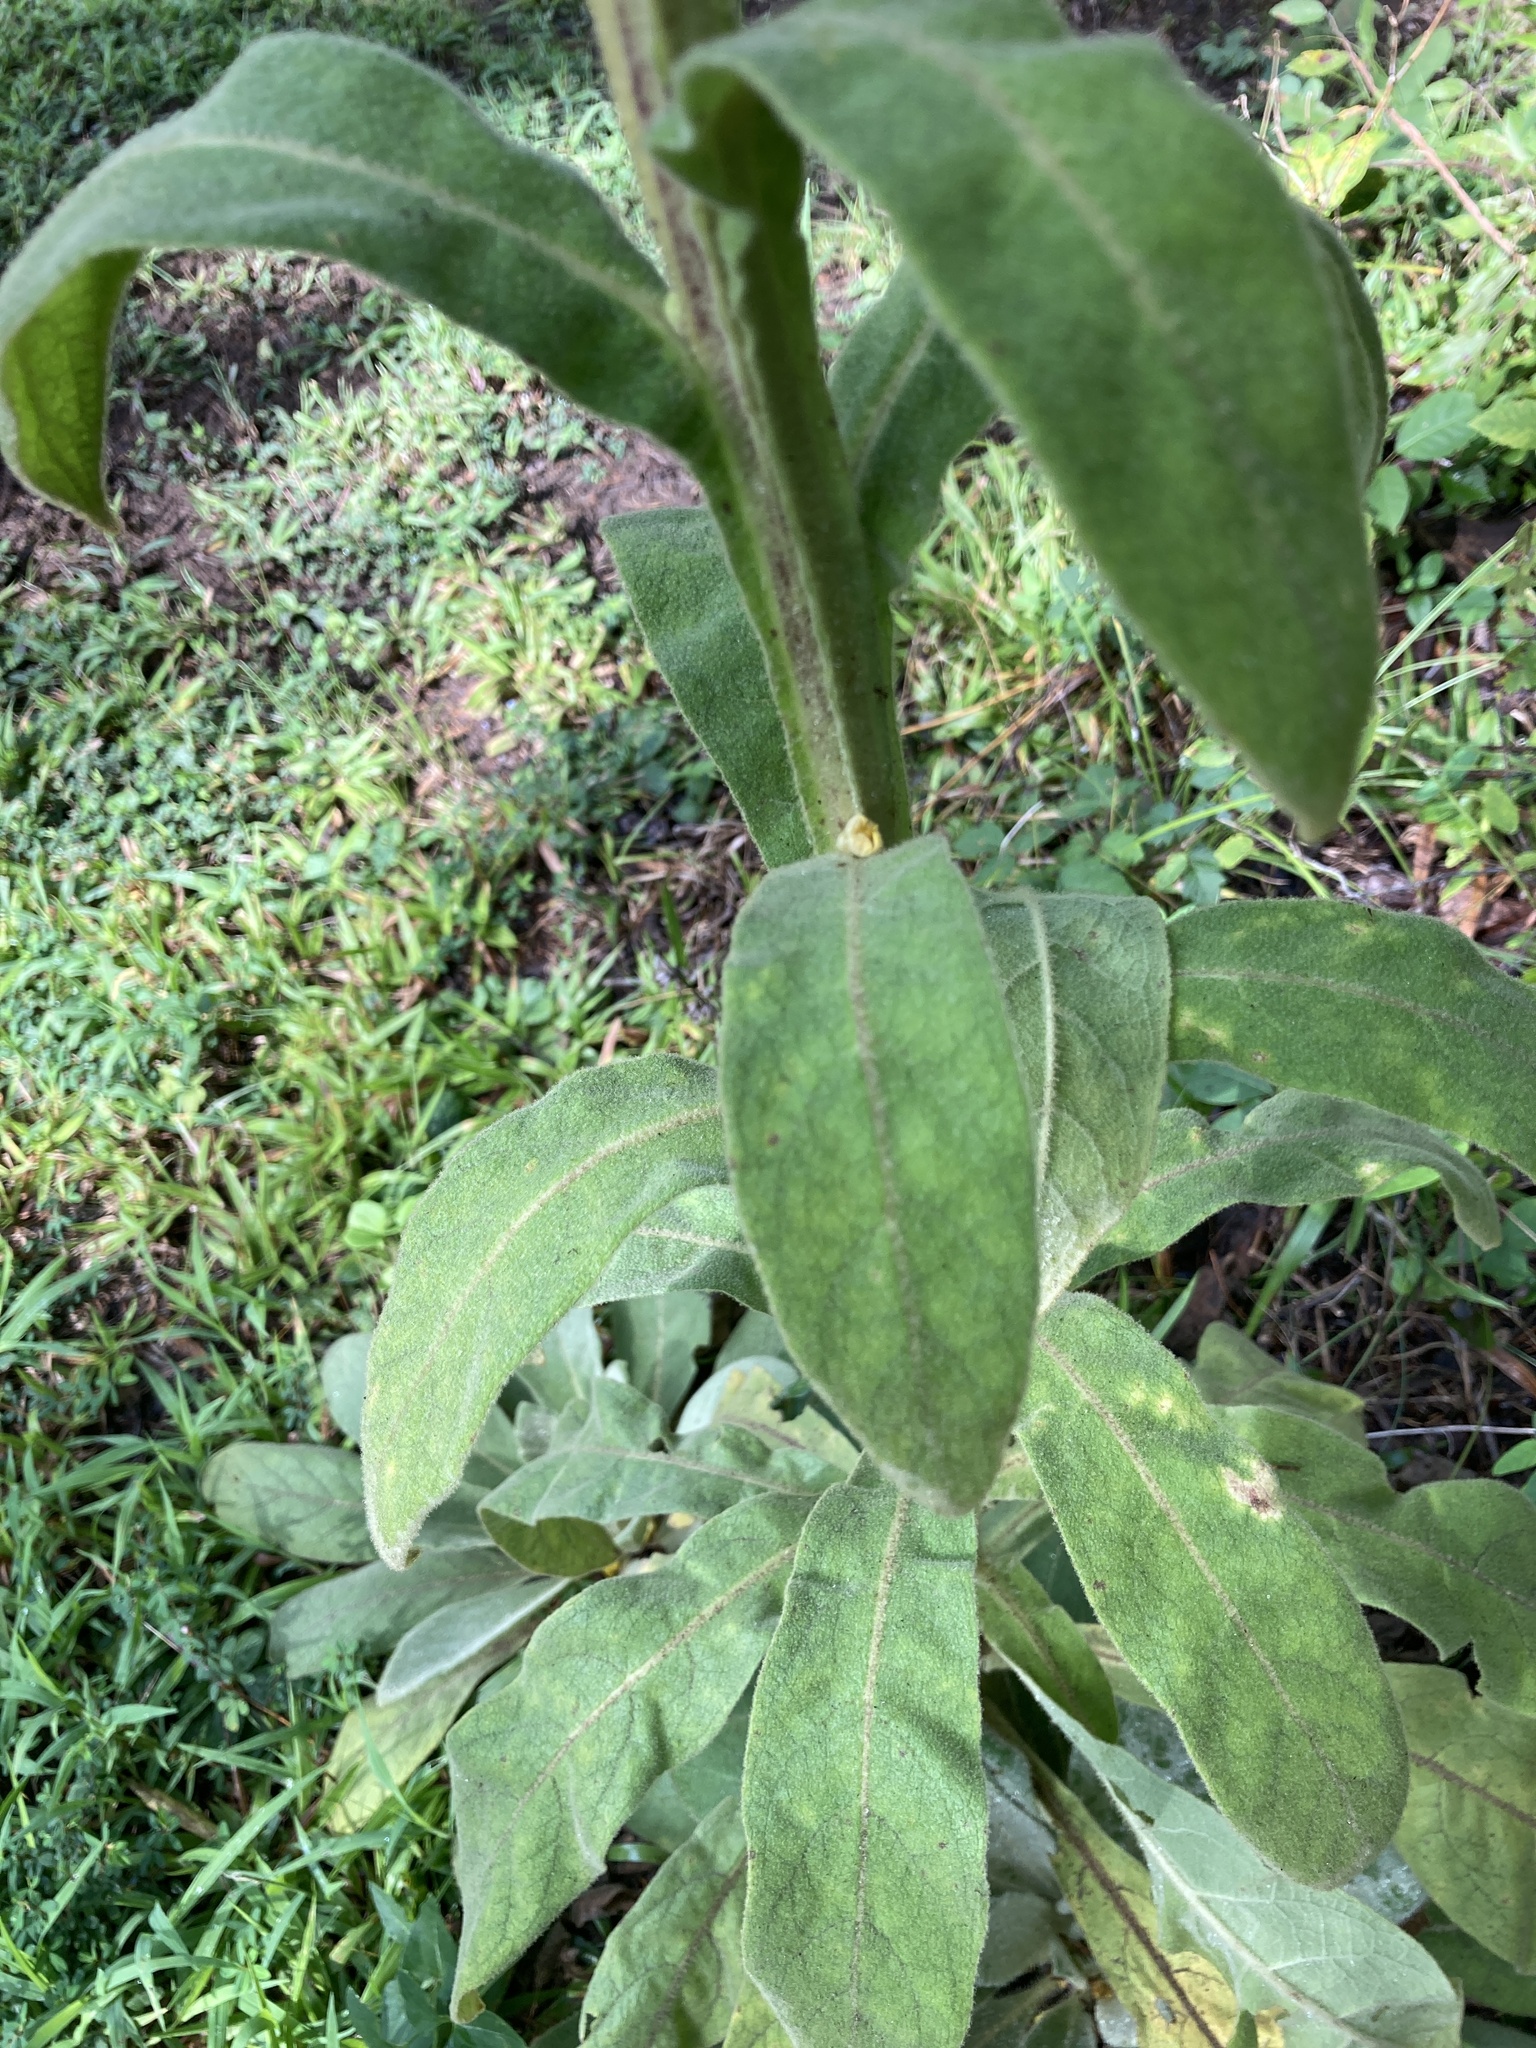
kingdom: Plantae
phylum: Tracheophyta
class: Magnoliopsida
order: Lamiales
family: Scrophulariaceae
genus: Verbascum
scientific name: Verbascum thapsus
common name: Common mullein
